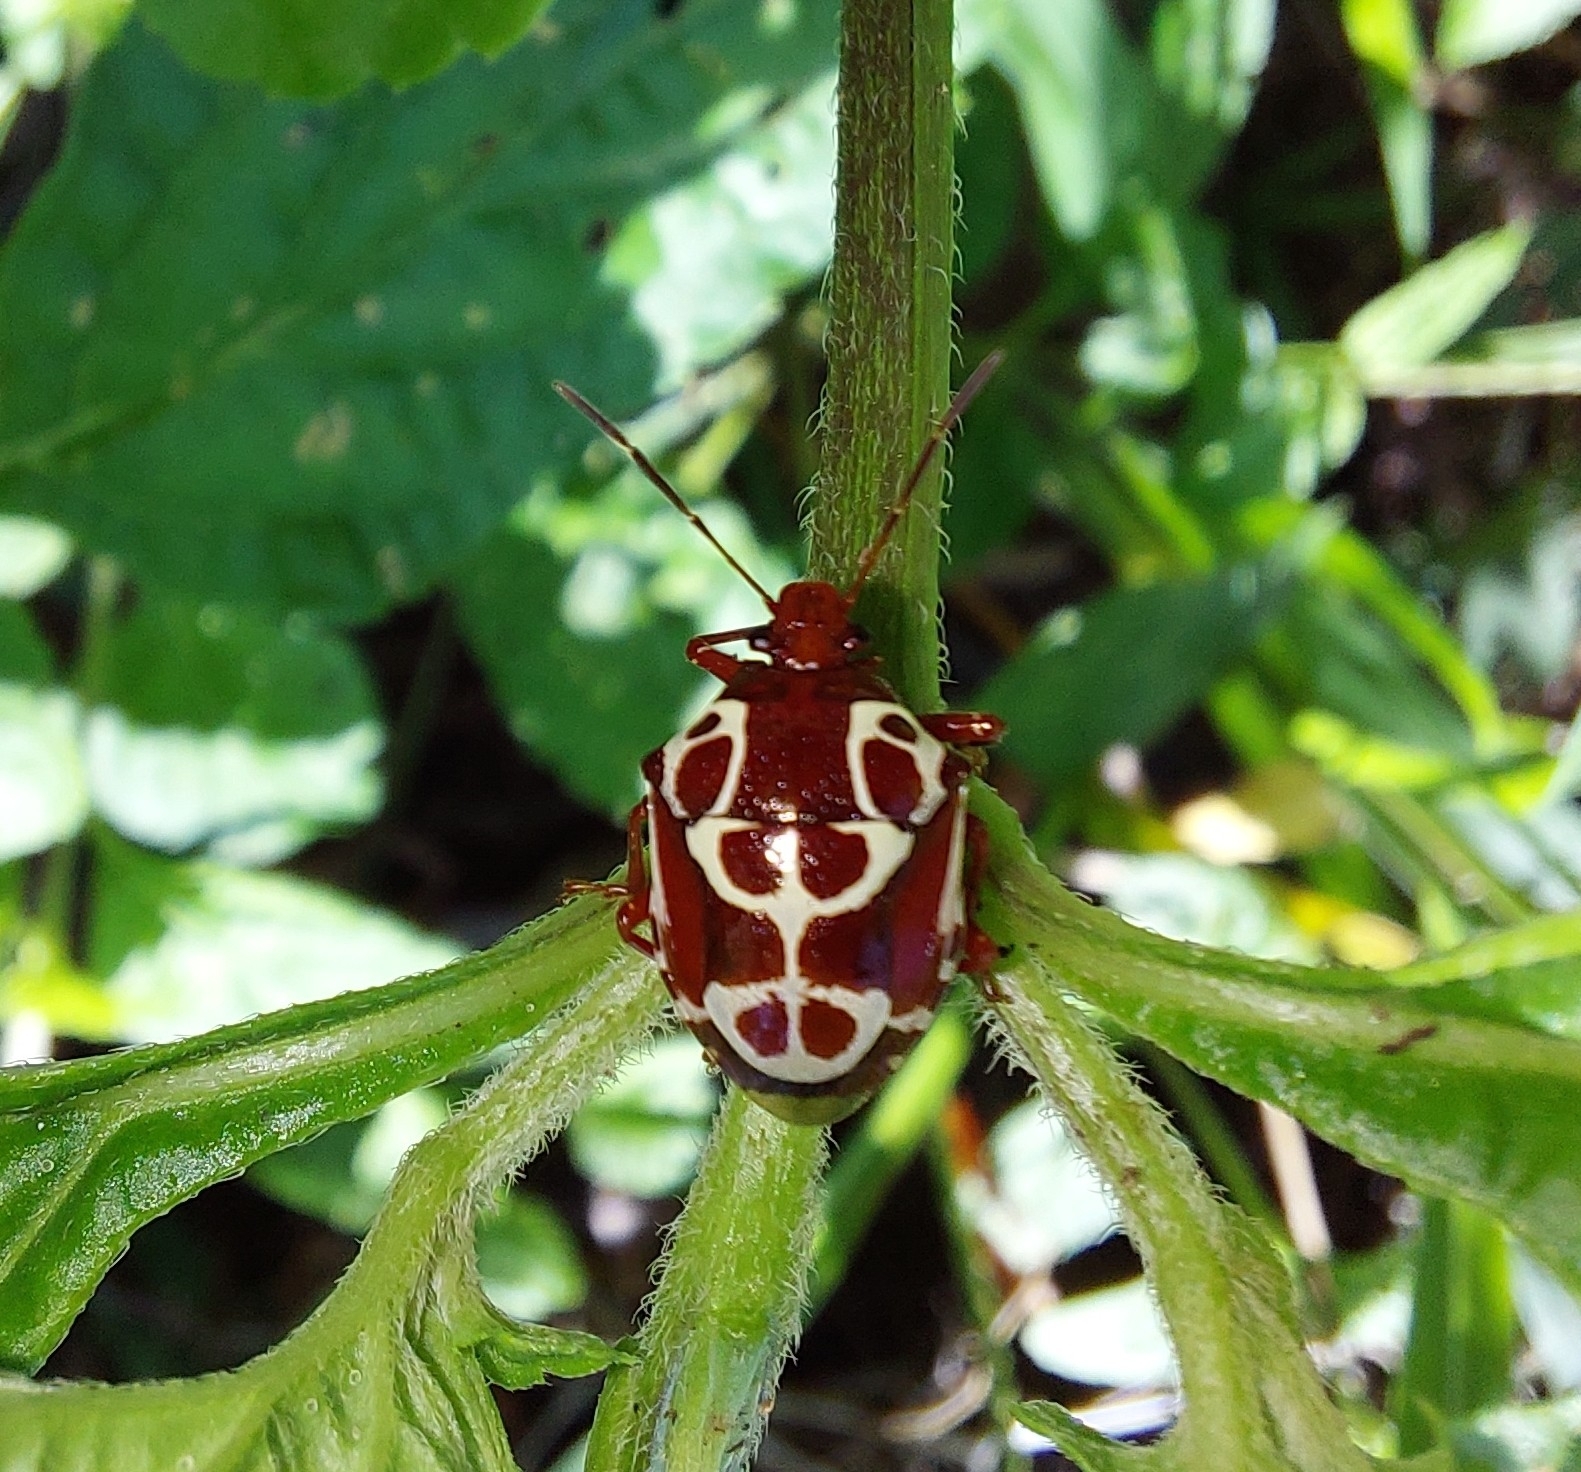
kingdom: Animalia
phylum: Arthropoda
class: Insecta
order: Hemiptera
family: Pentatomidae
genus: Stiretrus
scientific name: Stiretrus anchorago
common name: Anchor stink bug
